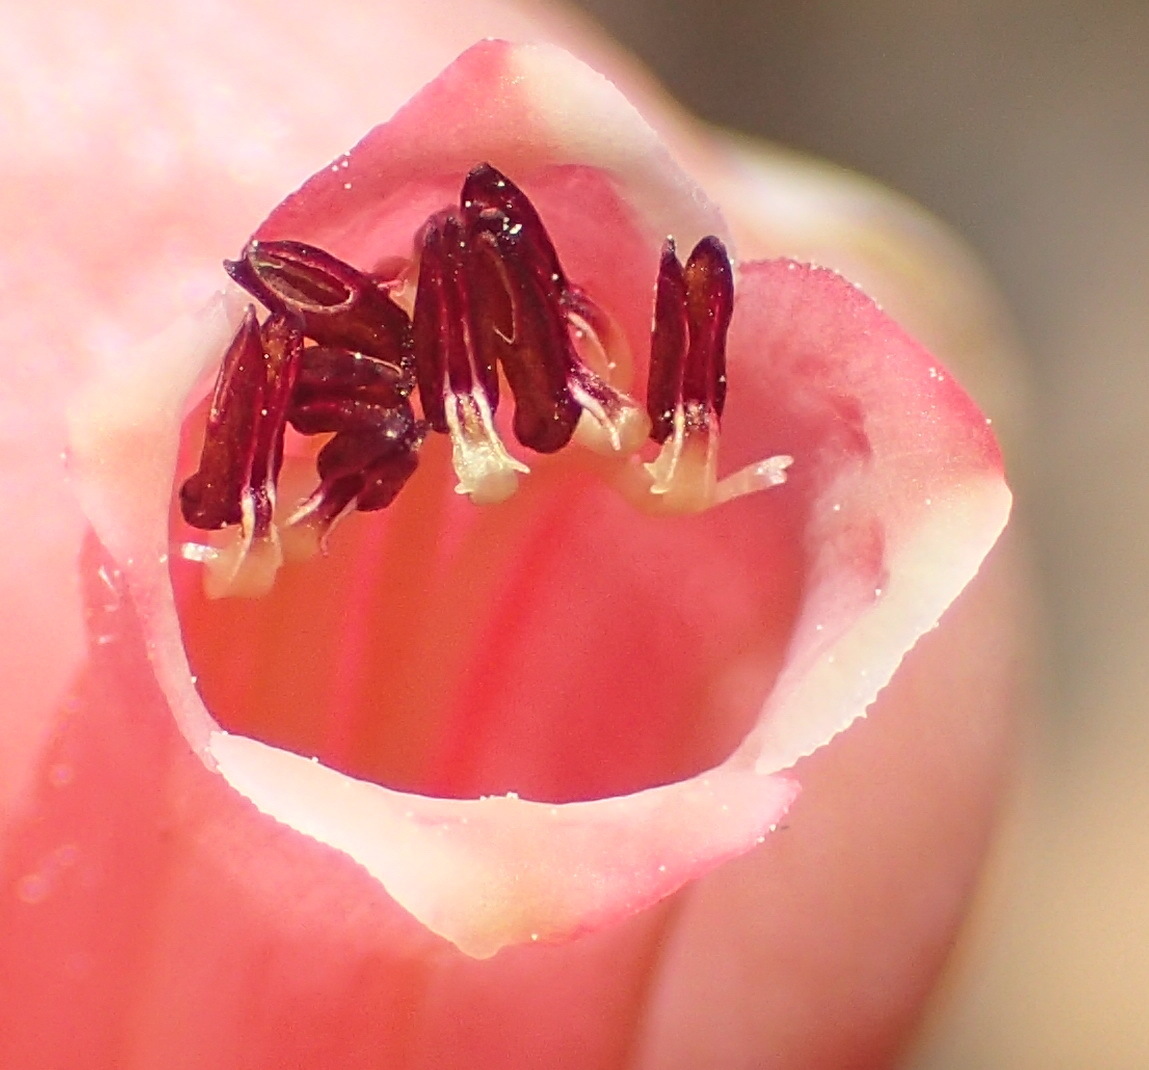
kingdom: Plantae
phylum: Tracheophyta
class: Magnoliopsida
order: Ericales
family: Ericaceae
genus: Erica
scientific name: Erica glandulosa
